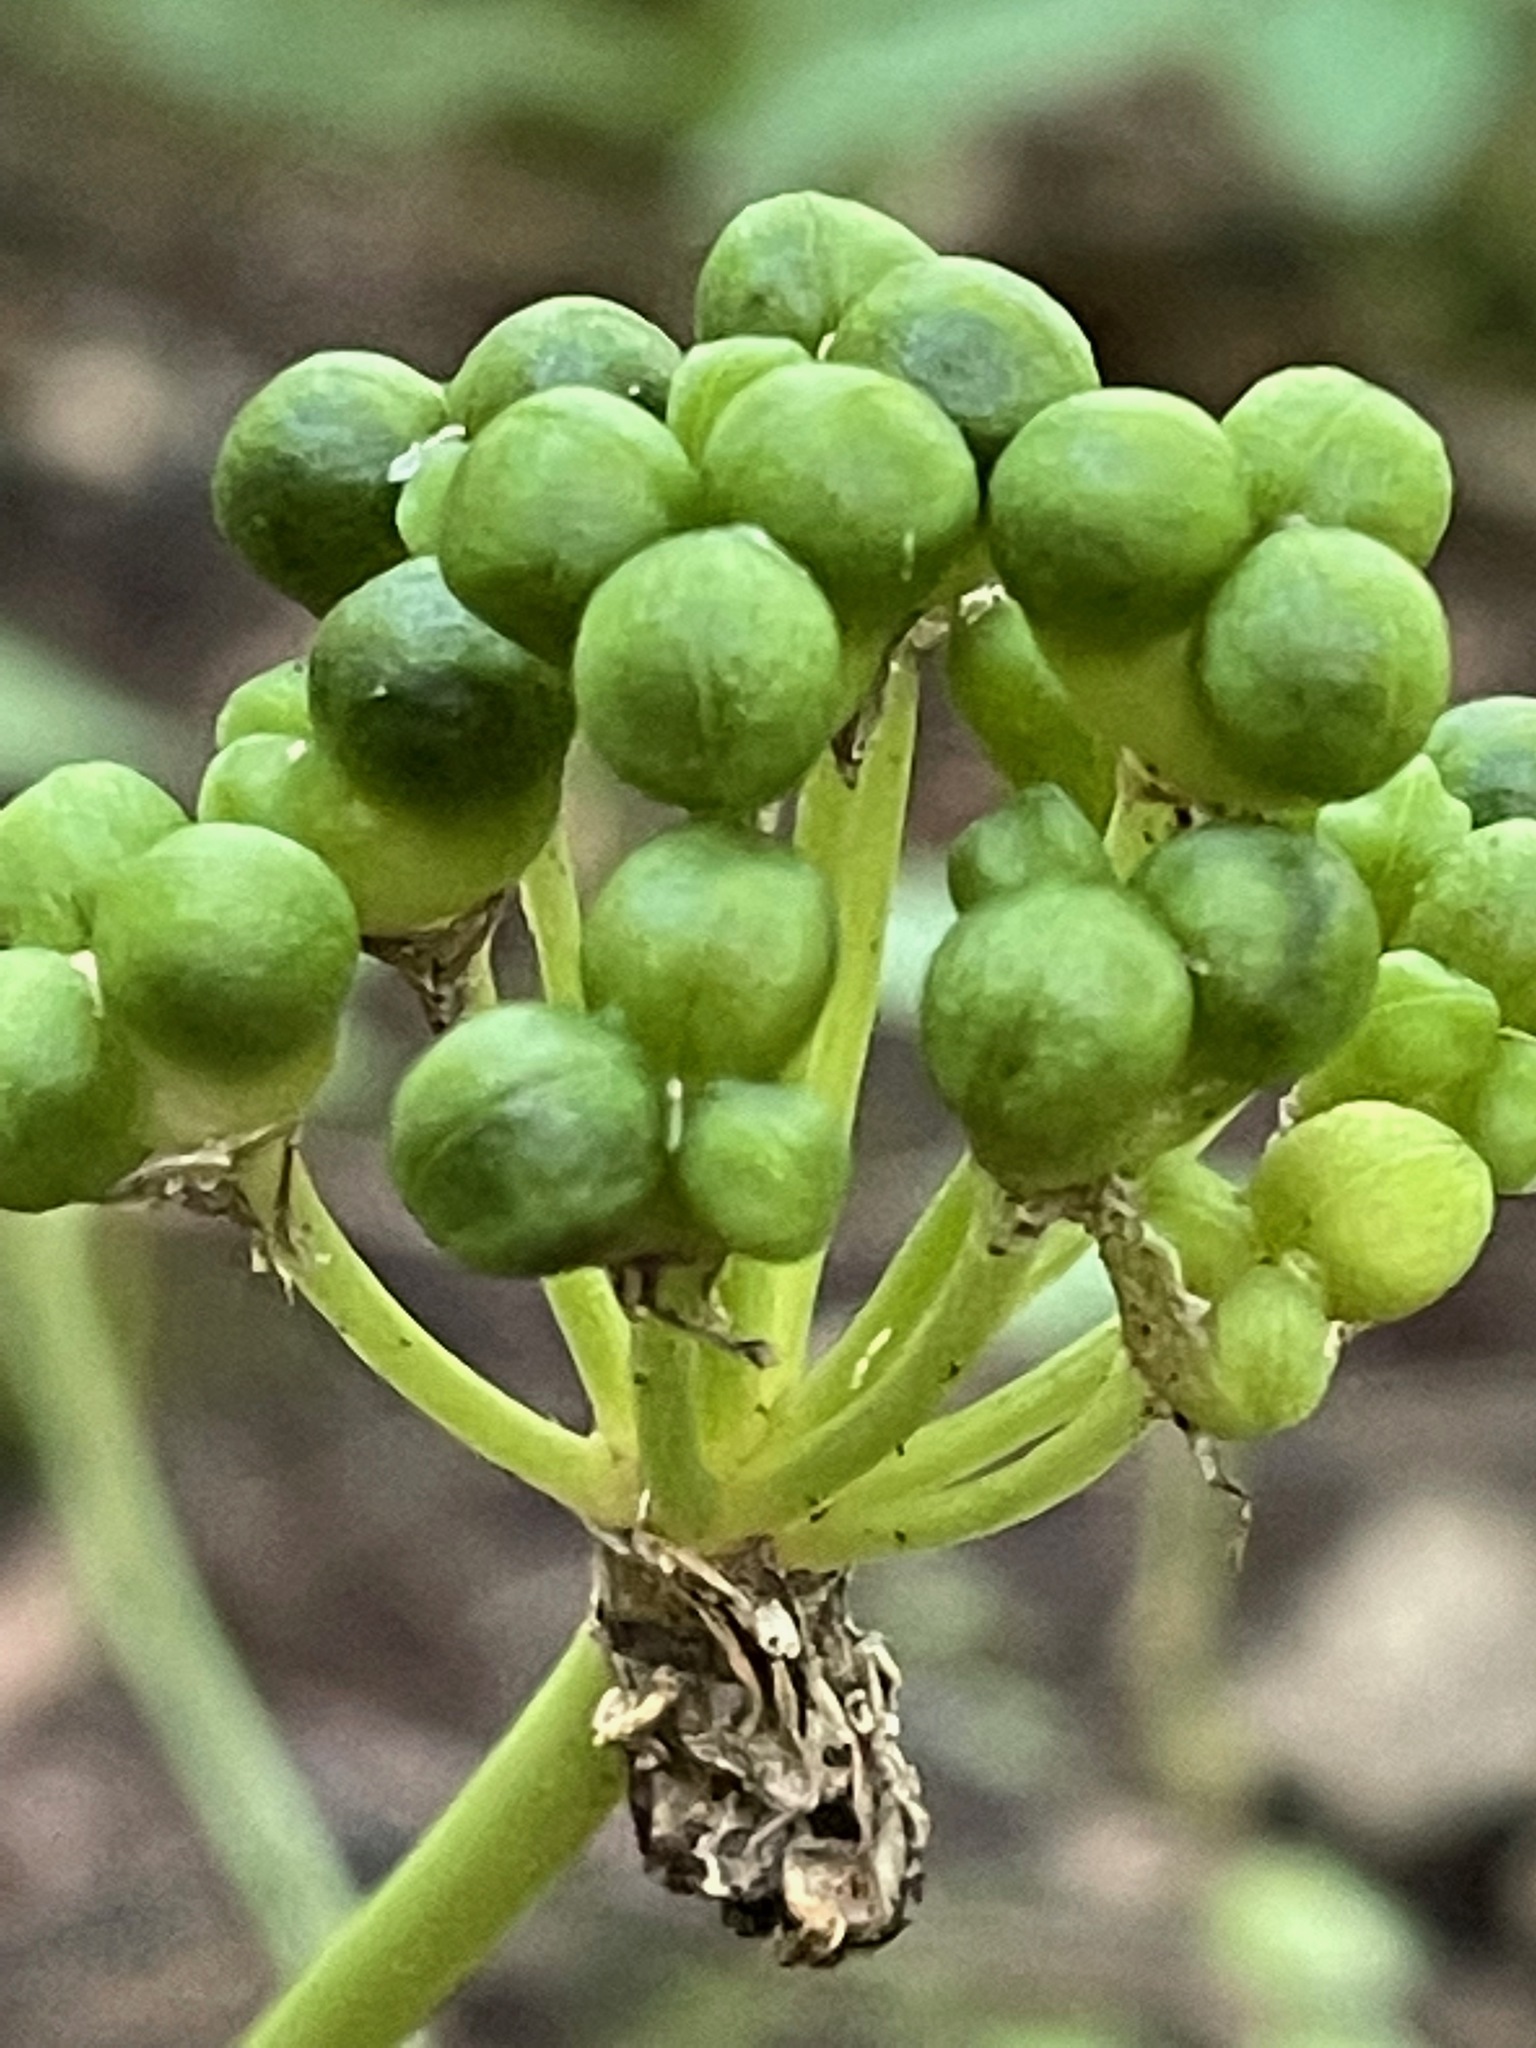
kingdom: Plantae
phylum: Tracheophyta
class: Liliopsida
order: Asparagales
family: Amaryllidaceae
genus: Allium
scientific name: Allium tricoccum
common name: Ramp
